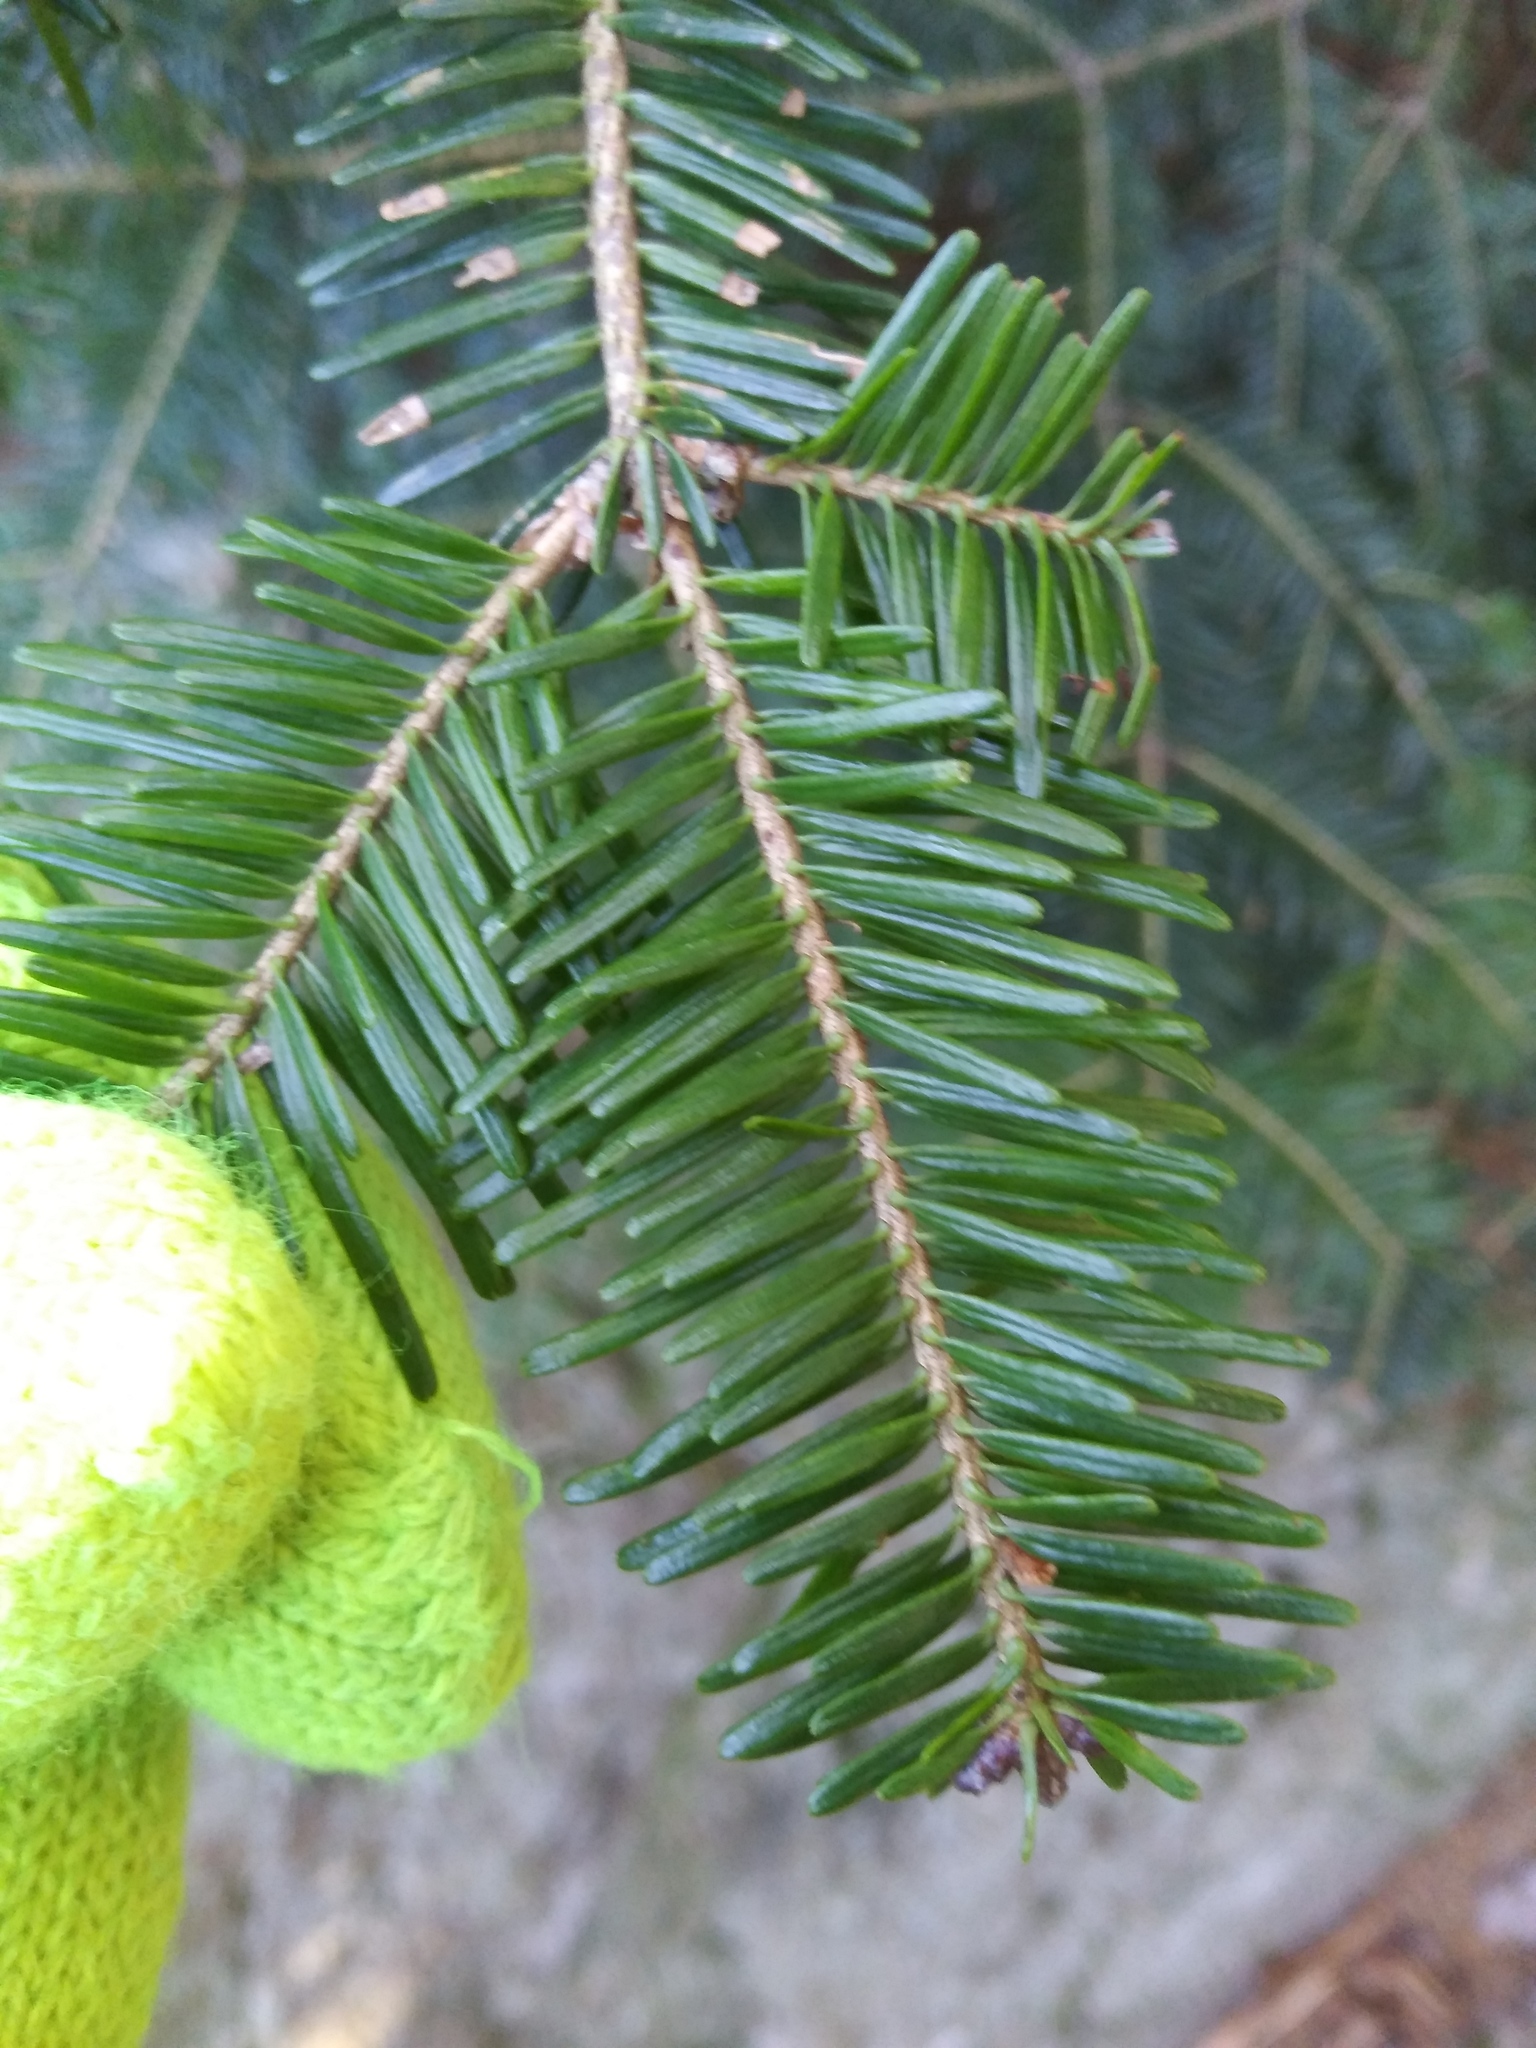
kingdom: Plantae
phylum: Tracheophyta
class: Pinopsida
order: Pinales
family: Pinaceae
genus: Abies
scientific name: Abies balsamea
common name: Balsam fir
